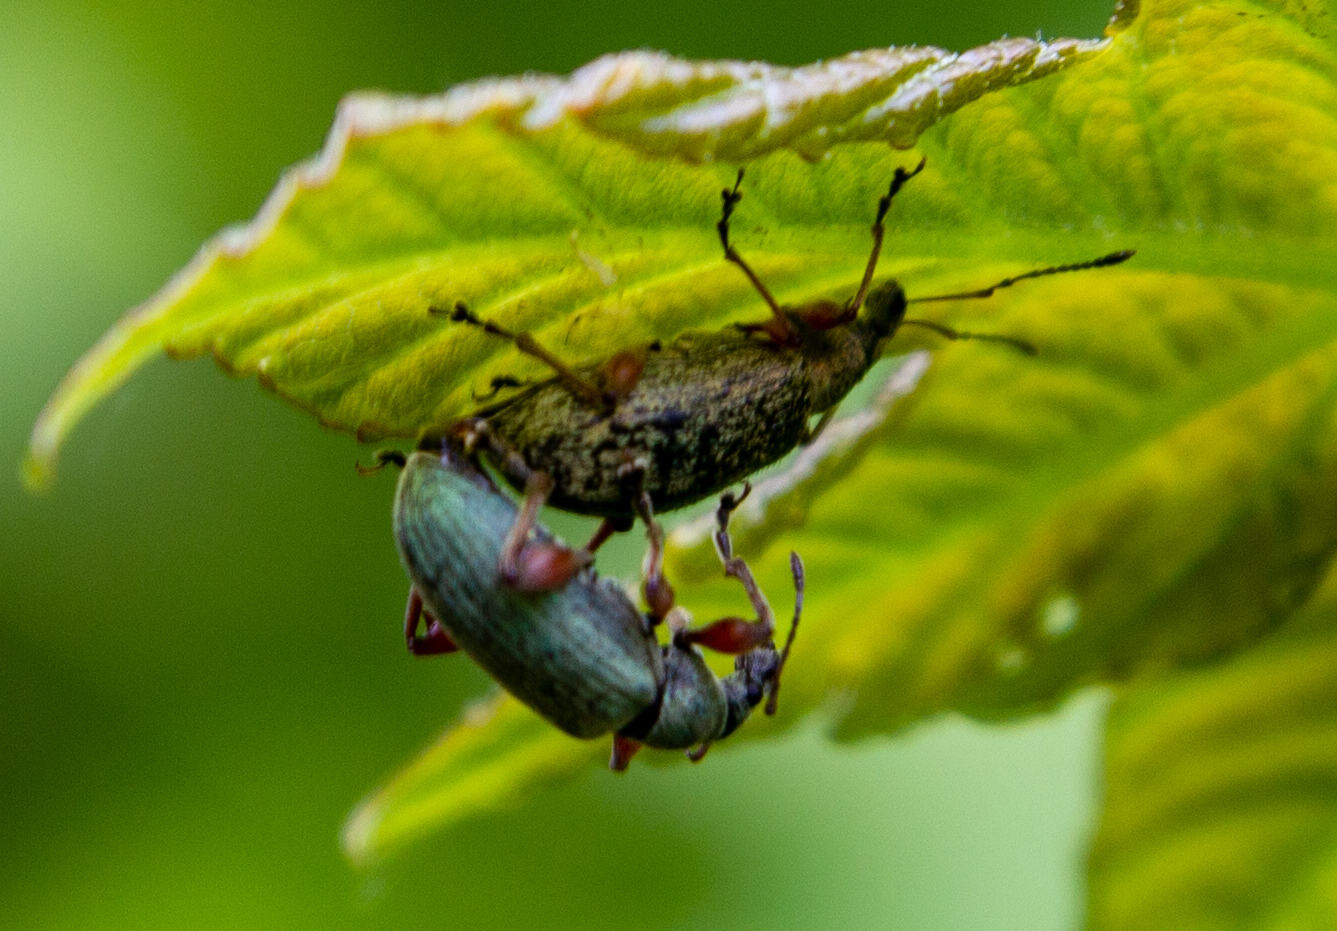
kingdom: Animalia
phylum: Arthropoda
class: Insecta
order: Coleoptera
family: Curculionidae
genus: Phyllobius
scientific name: Phyllobius glaucus
